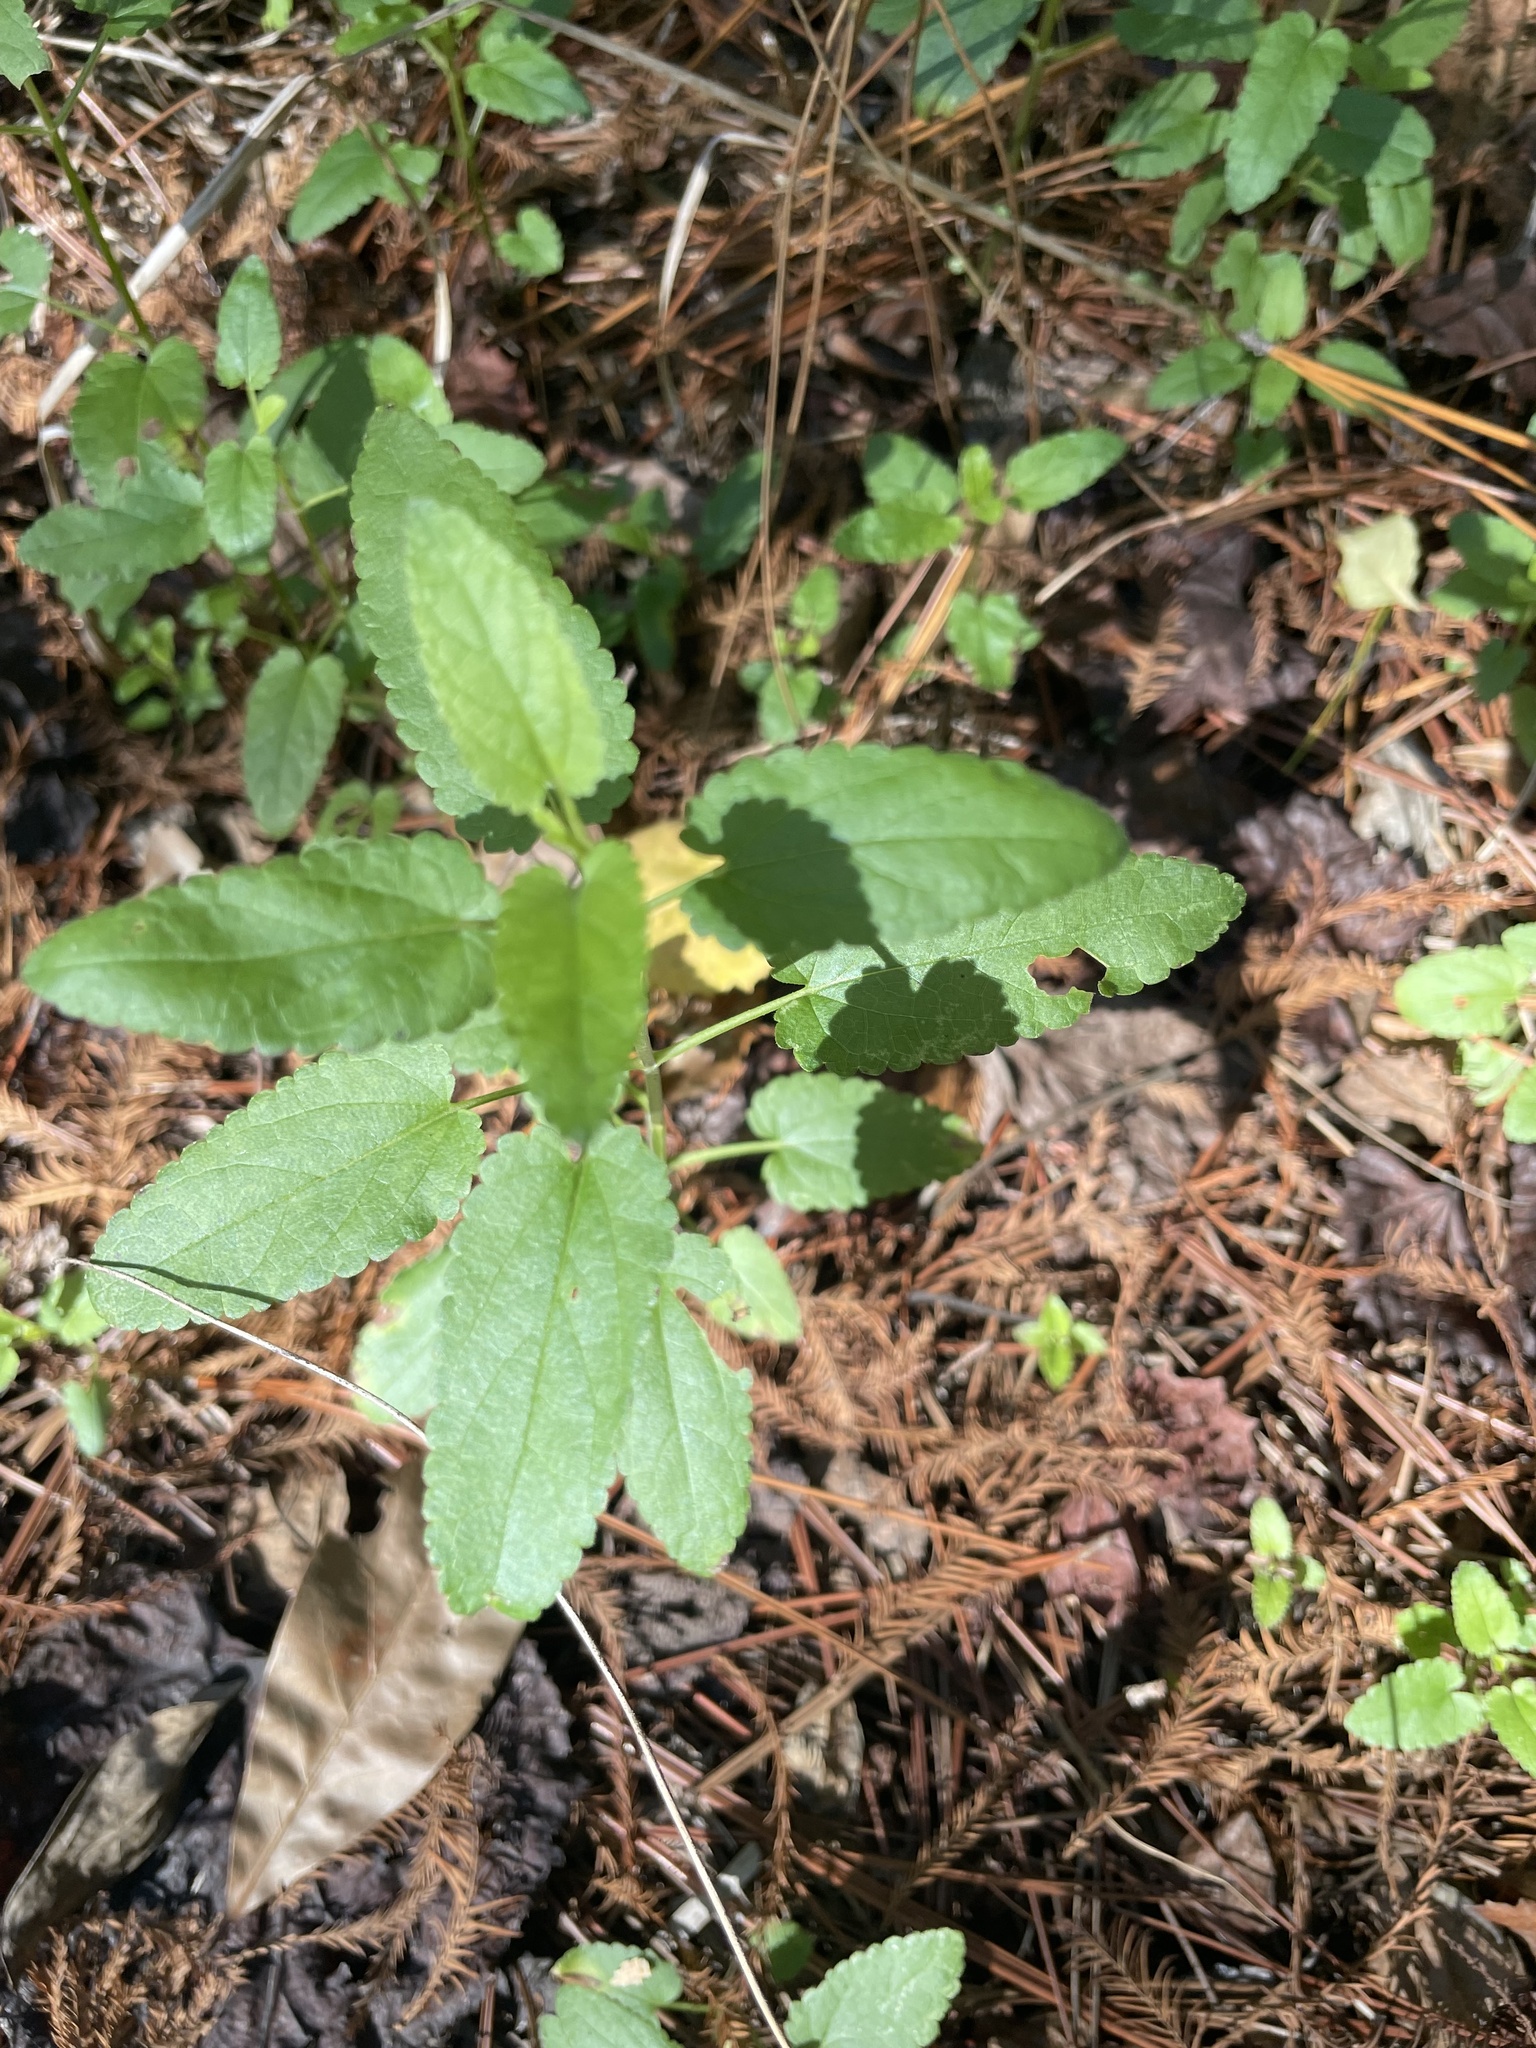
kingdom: Plantae
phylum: Tracheophyta
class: Magnoliopsida
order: Lamiales
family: Lamiaceae
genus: Stachys
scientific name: Stachys tenuifolia
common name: Smooth hedge-nettle
